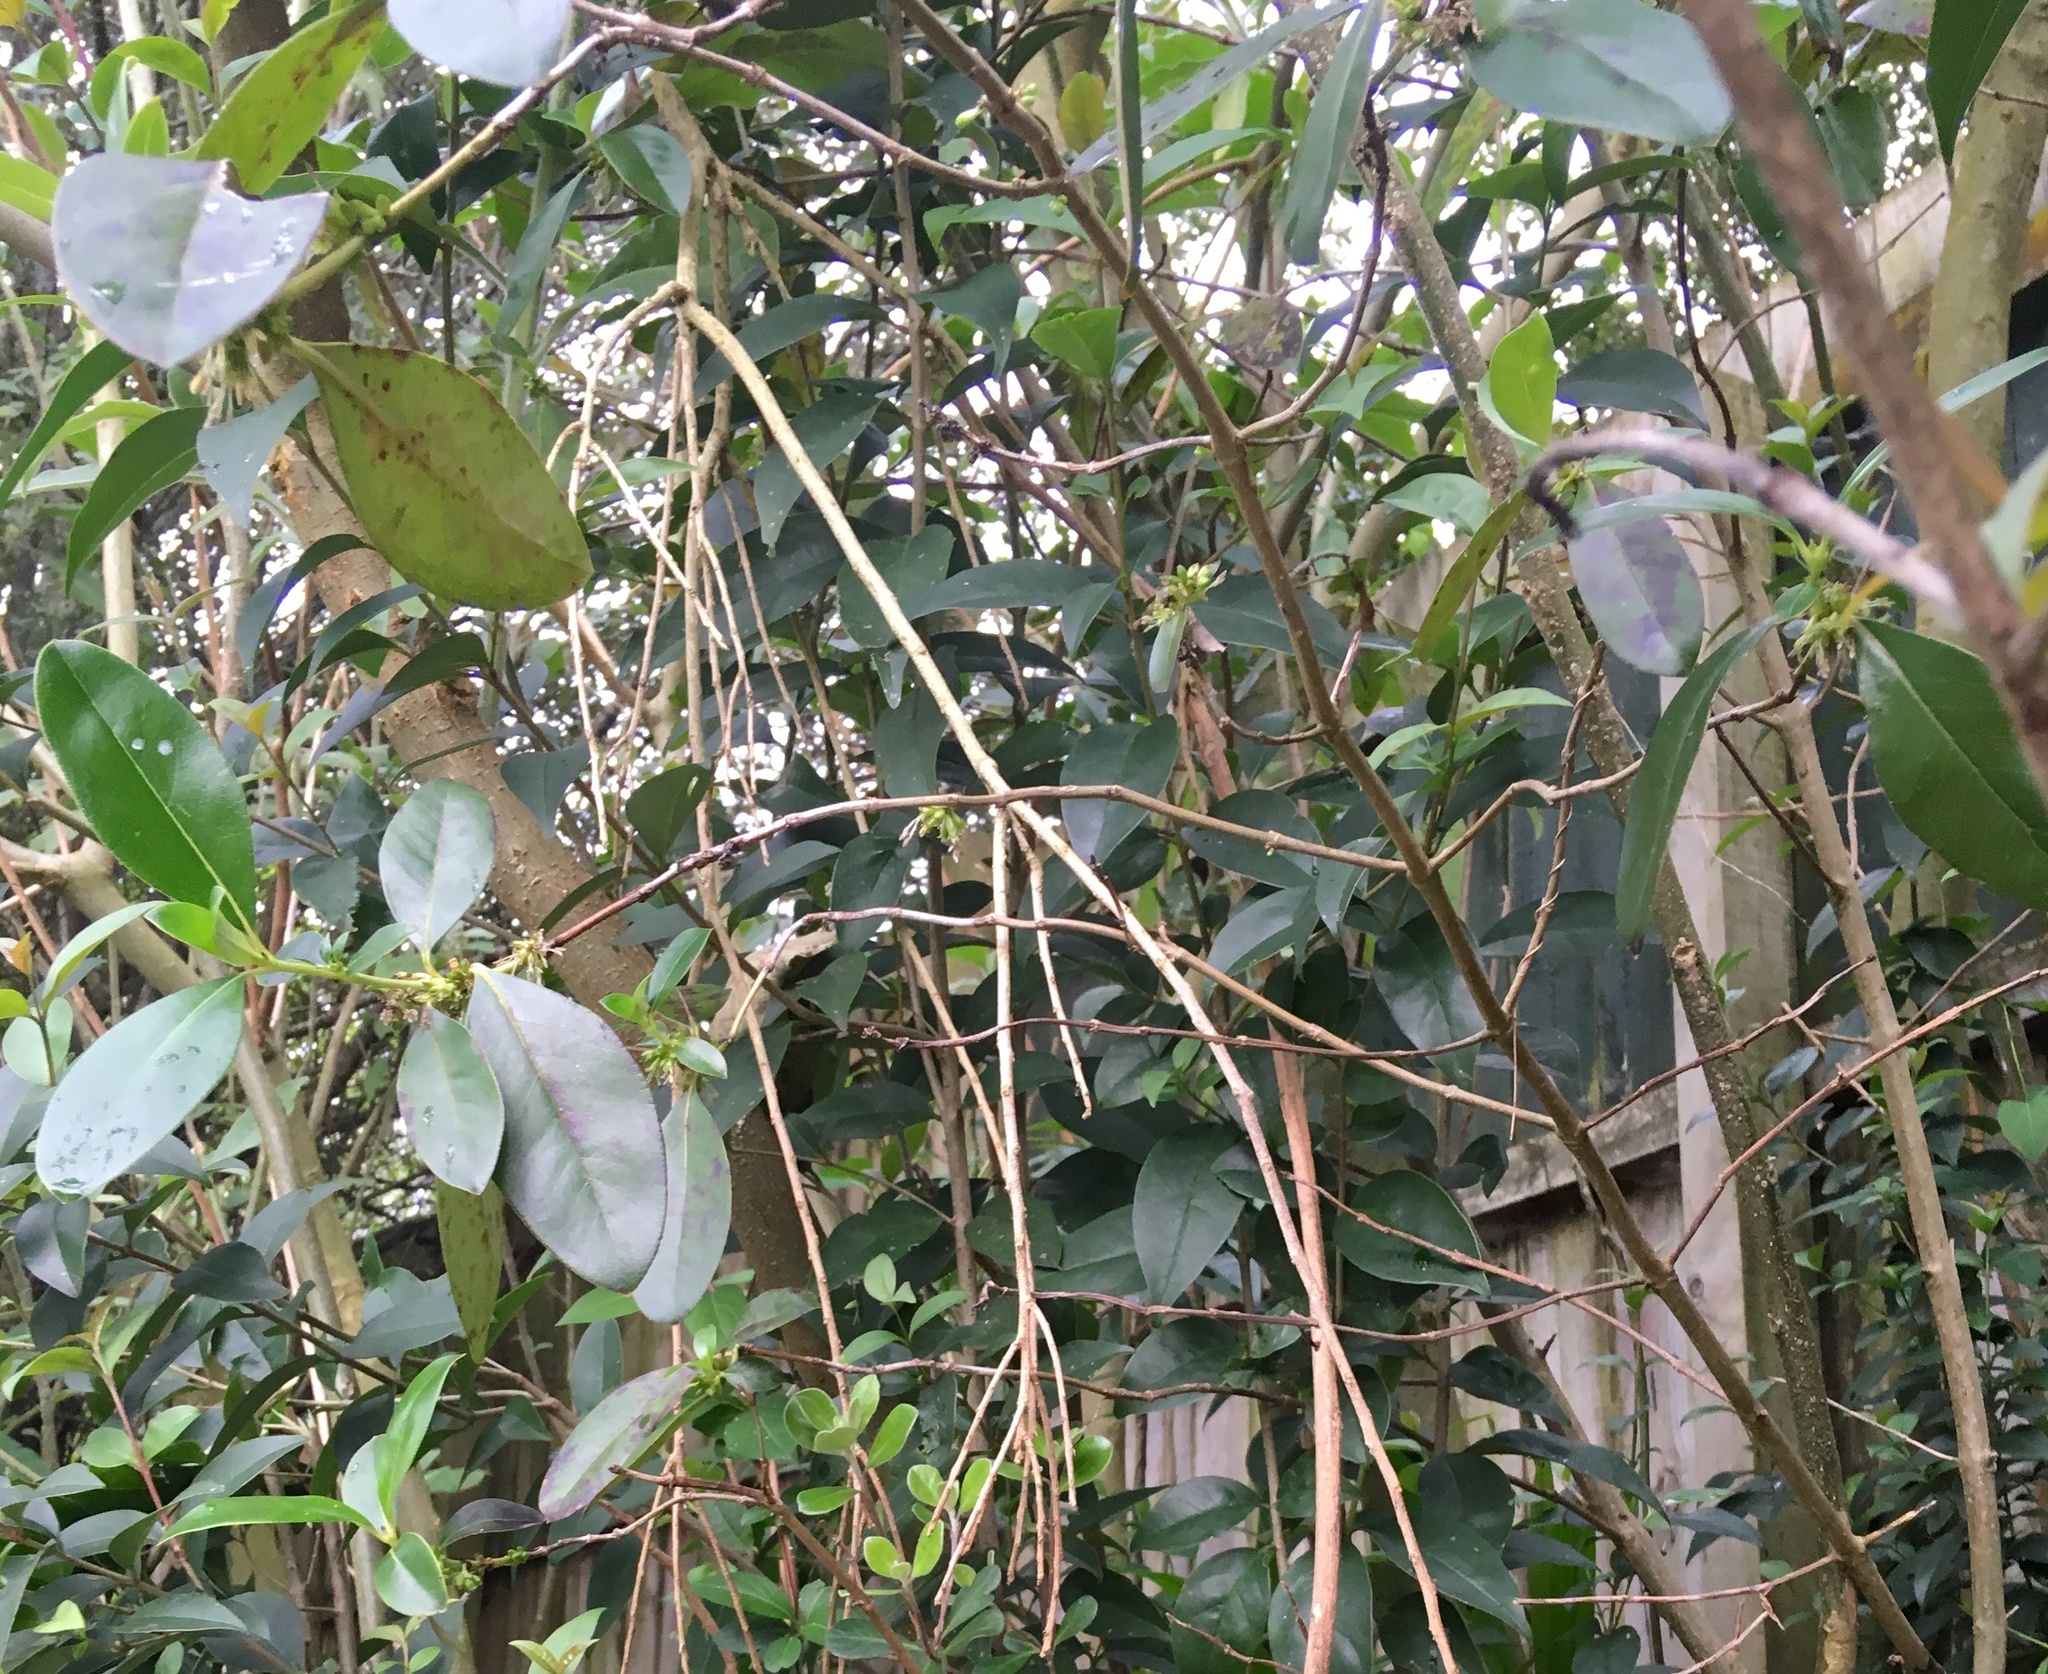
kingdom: Plantae
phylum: Tracheophyta
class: Magnoliopsida
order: Gentianales
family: Rubiaceae
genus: Coprosma
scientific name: Coprosma robusta
